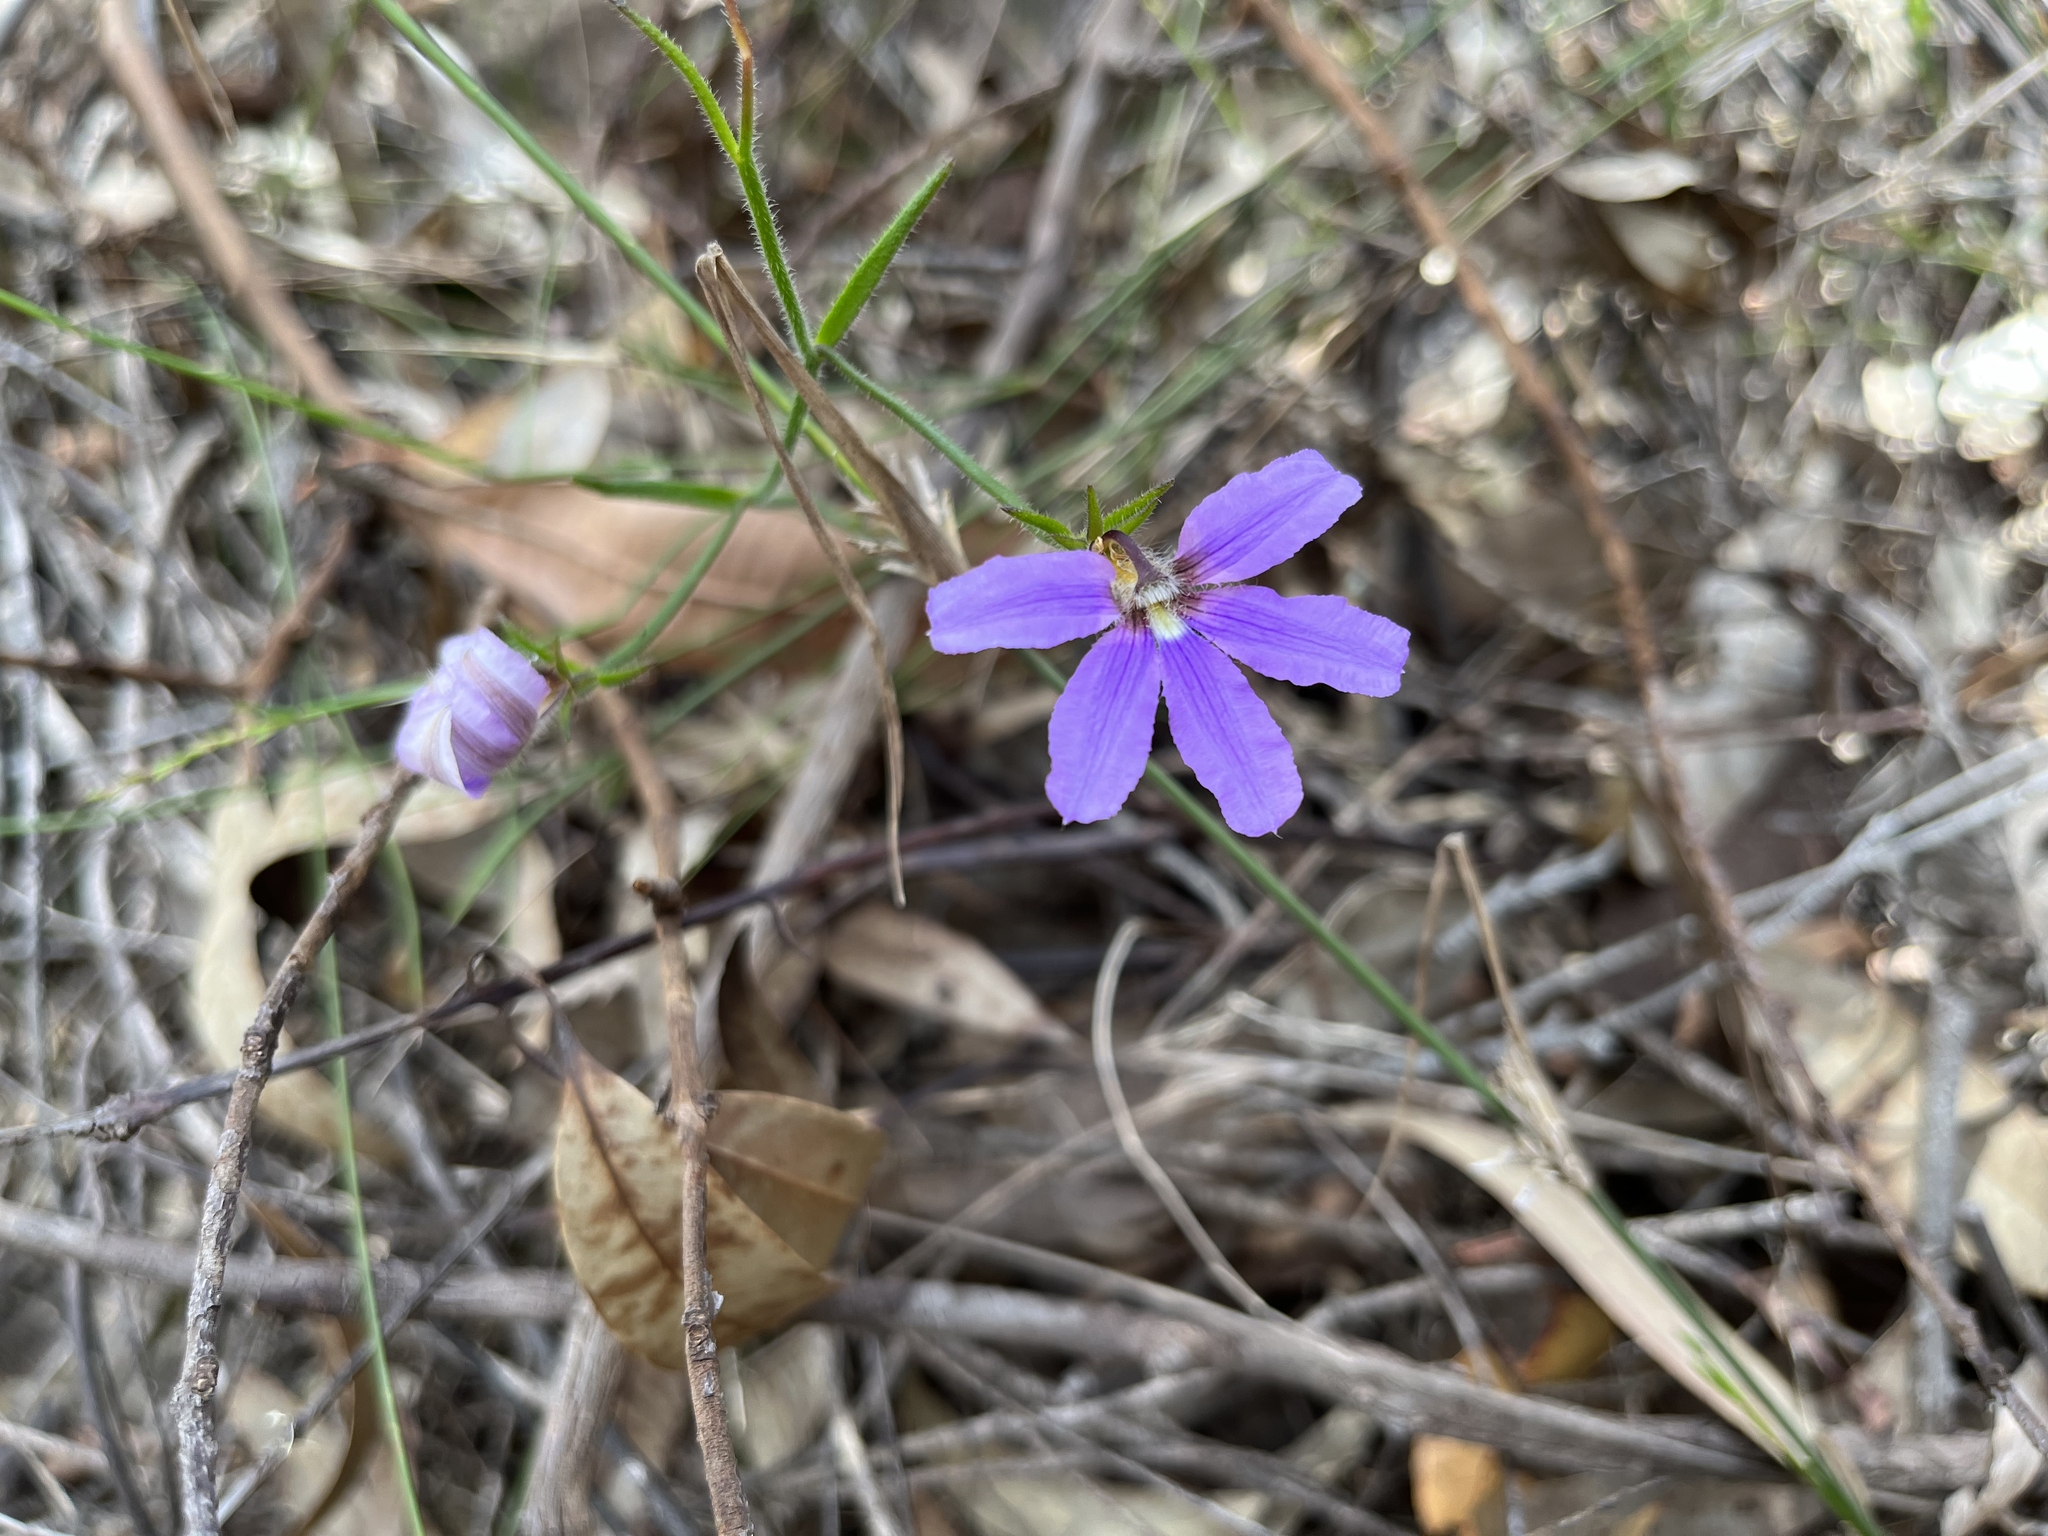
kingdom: Plantae
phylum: Tracheophyta
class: Magnoliopsida
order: Asterales
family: Goodeniaceae
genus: Scaevola
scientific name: Scaevola ramosissima
